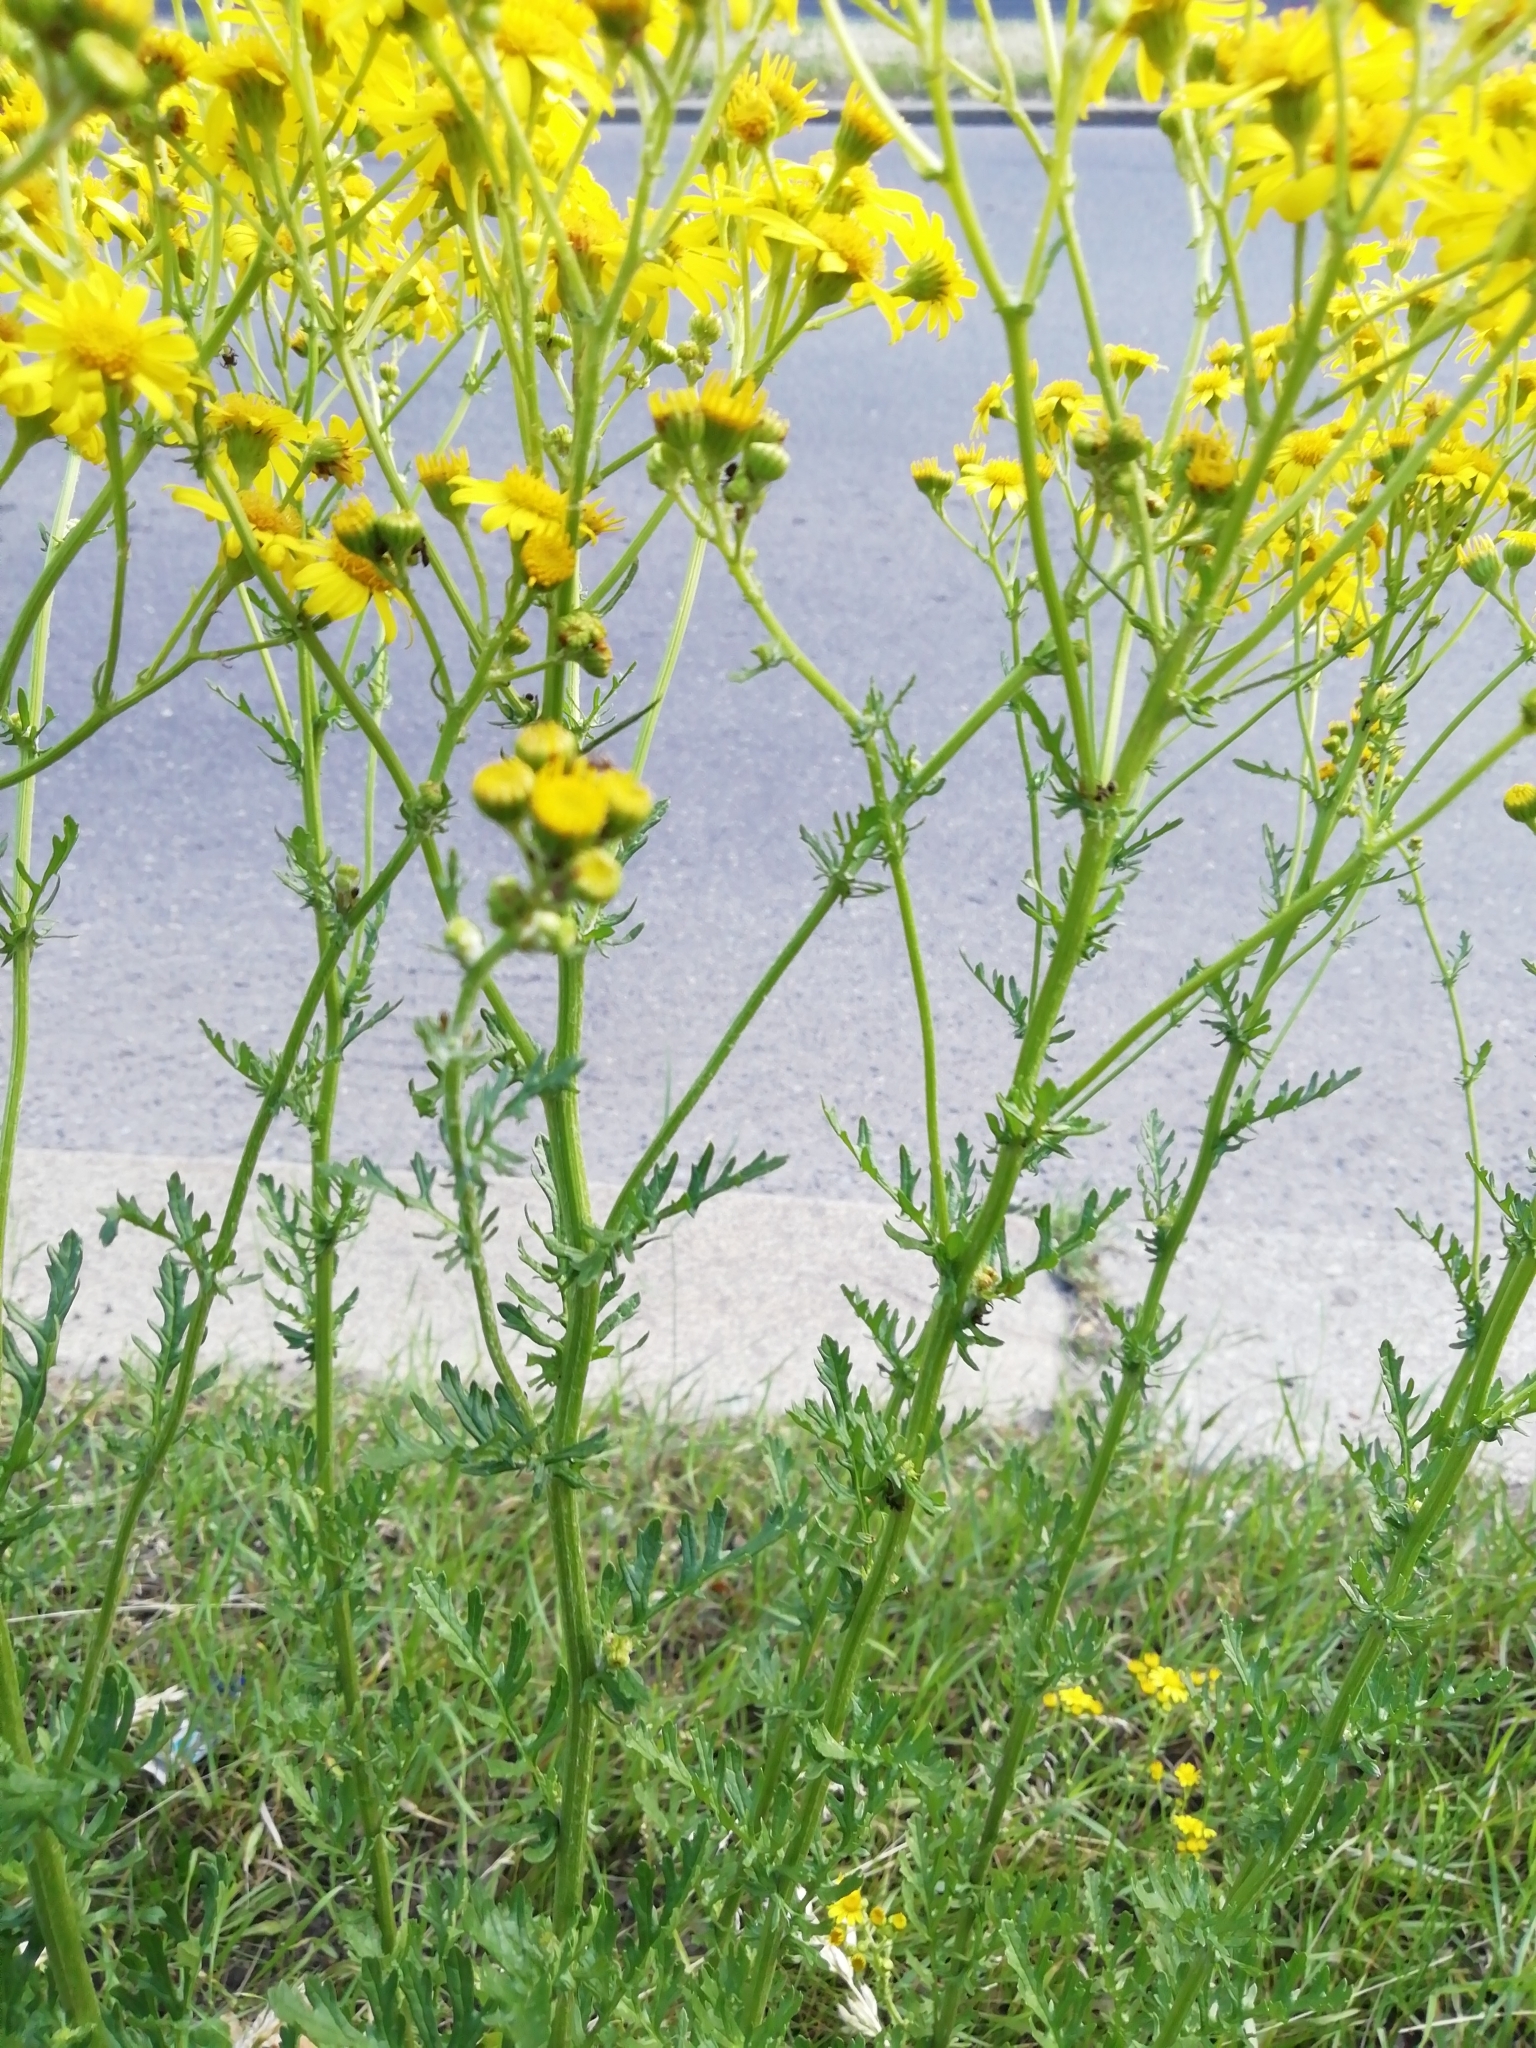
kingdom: Plantae
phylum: Tracheophyta
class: Magnoliopsida
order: Asterales
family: Asteraceae
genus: Jacobaea
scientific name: Jacobaea vulgaris
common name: Stinking willie
